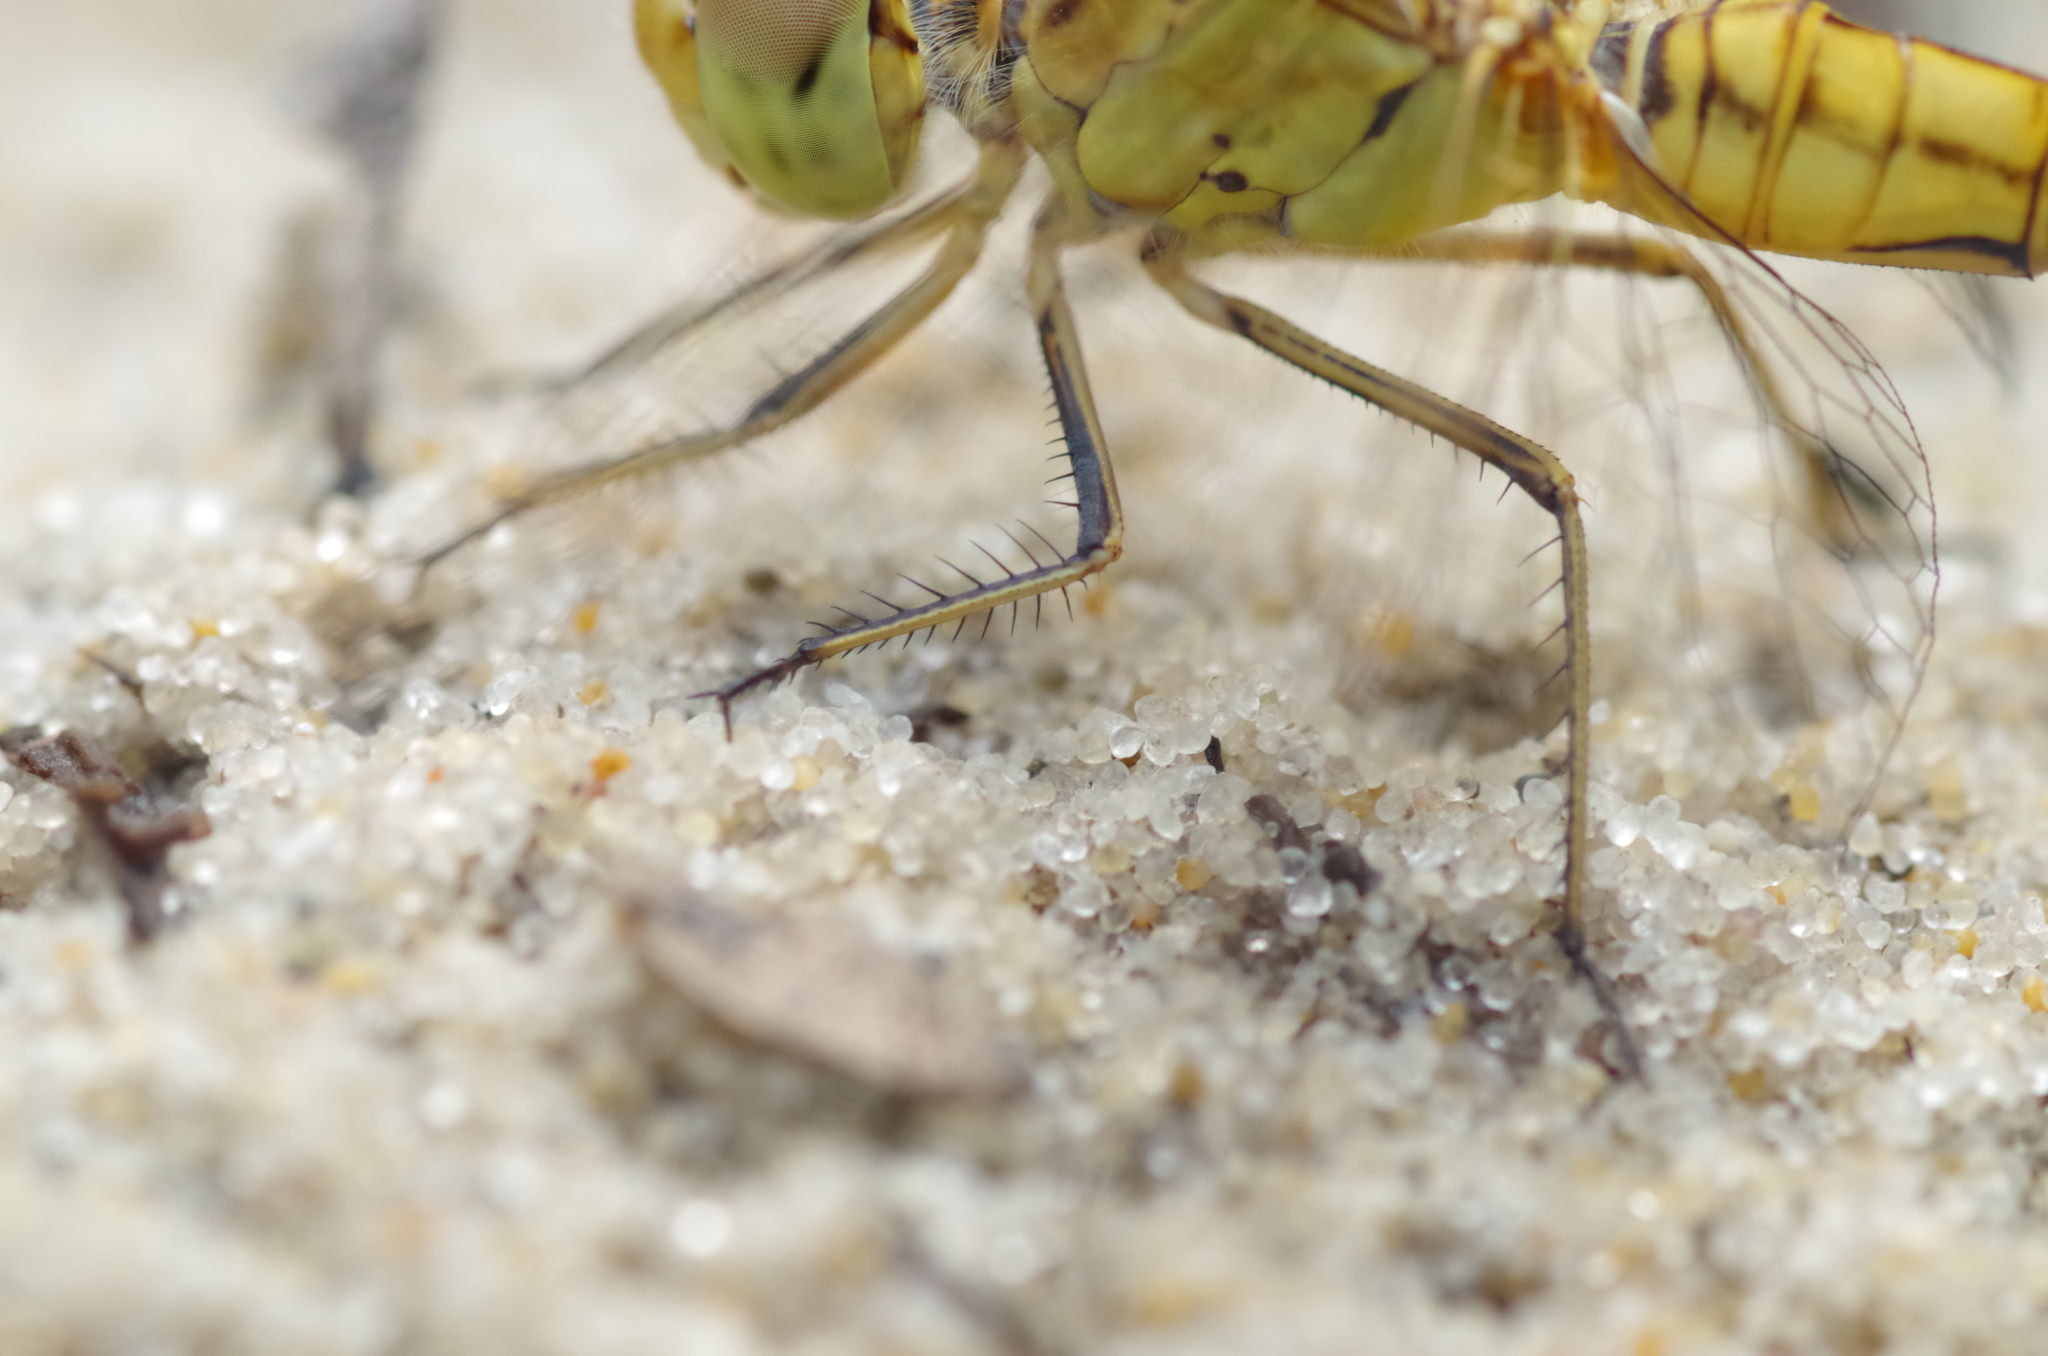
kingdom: Animalia
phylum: Arthropoda
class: Insecta
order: Odonata
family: Libellulidae
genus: Sympetrum
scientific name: Sympetrum meridionale
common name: Southern darter
